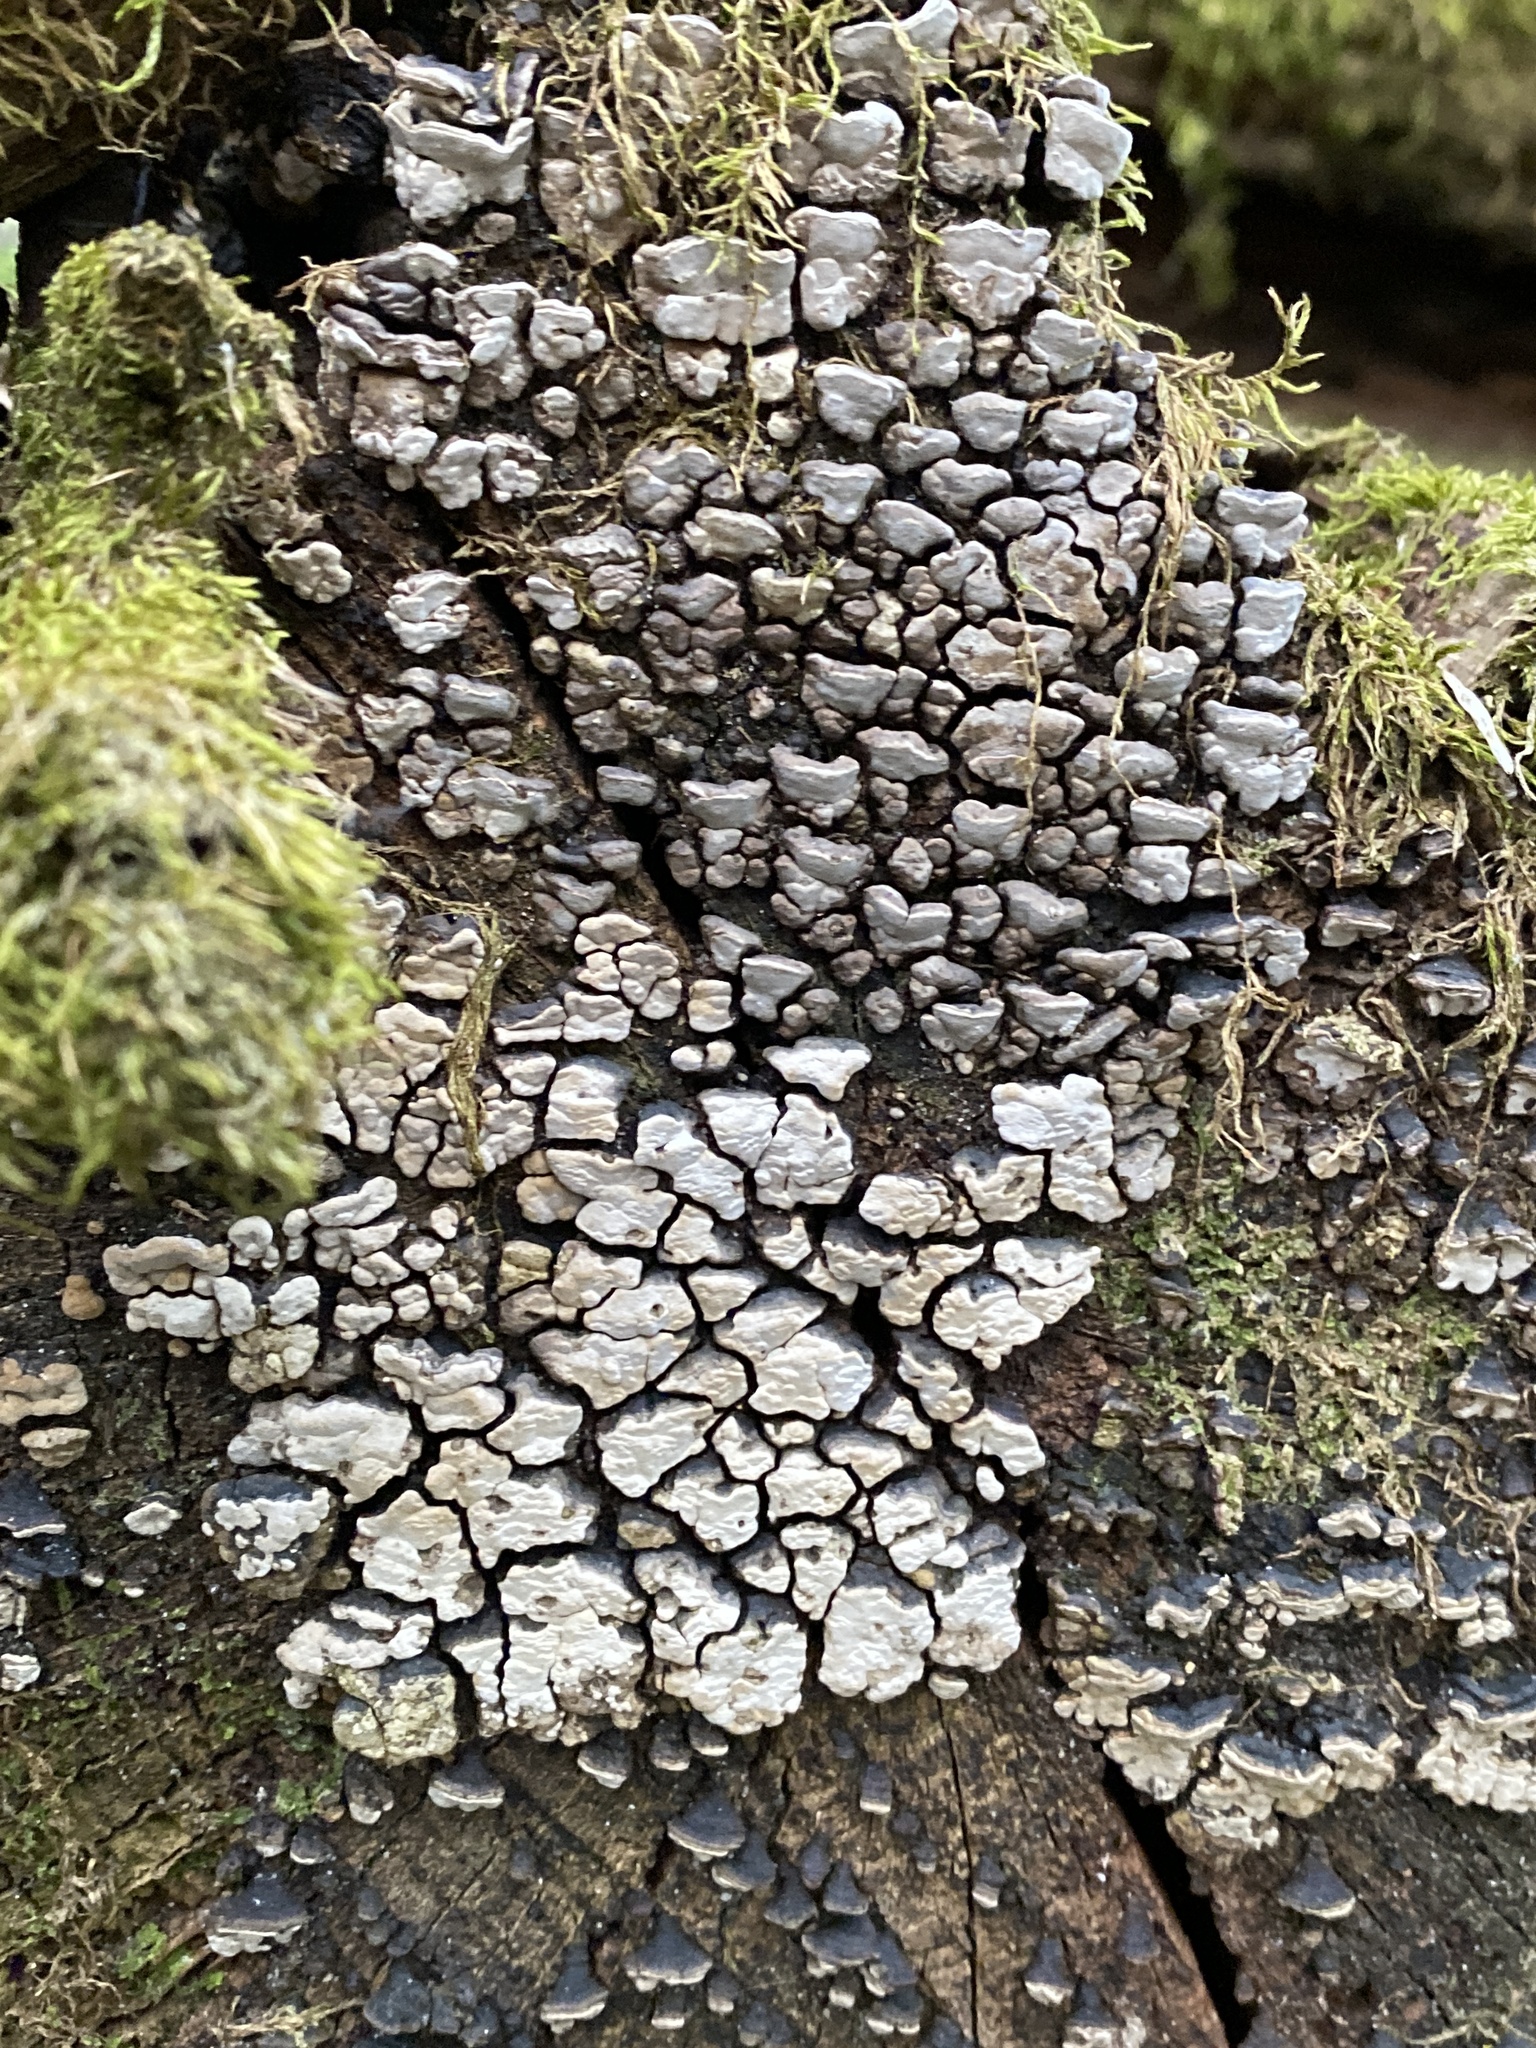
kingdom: Fungi
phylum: Basidiomycota
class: Agaricomycetes
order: Russulales
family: Stereaceae
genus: Xylobolus
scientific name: Xylobolus frustulatus
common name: Ceramic parchment
